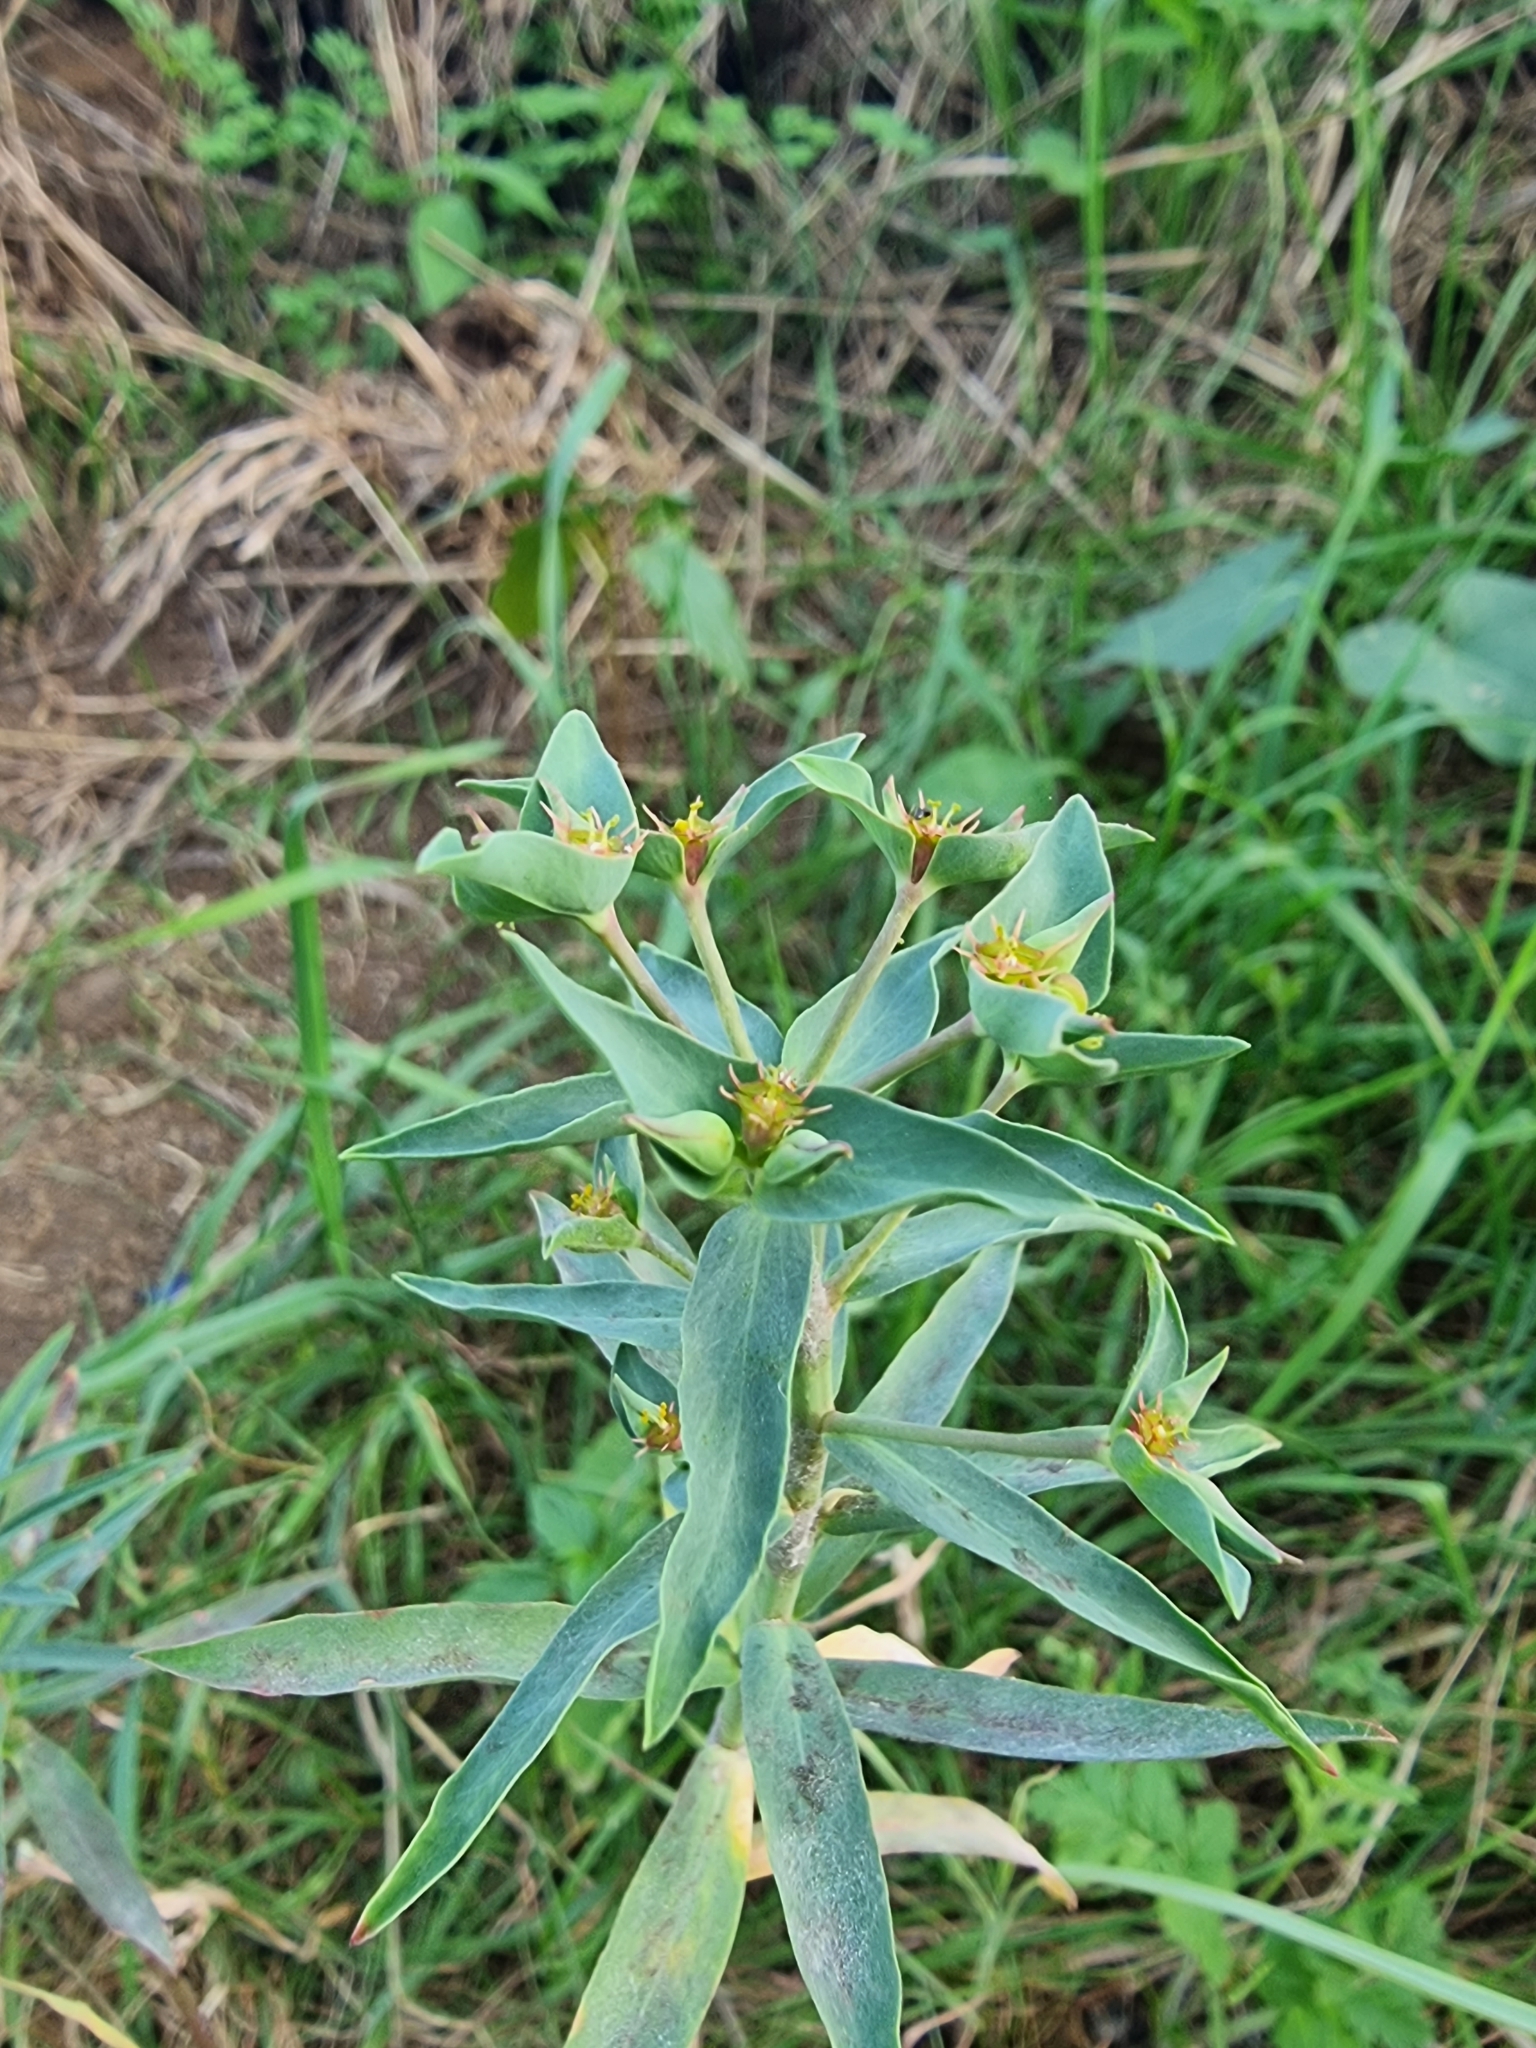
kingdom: Plantae
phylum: Tracheophyta
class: Magnoliopsida
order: Malpighiales
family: Euphorbiaceae
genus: Euphorbia
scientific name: Euphorbia exigua
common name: Dwarf spurge
